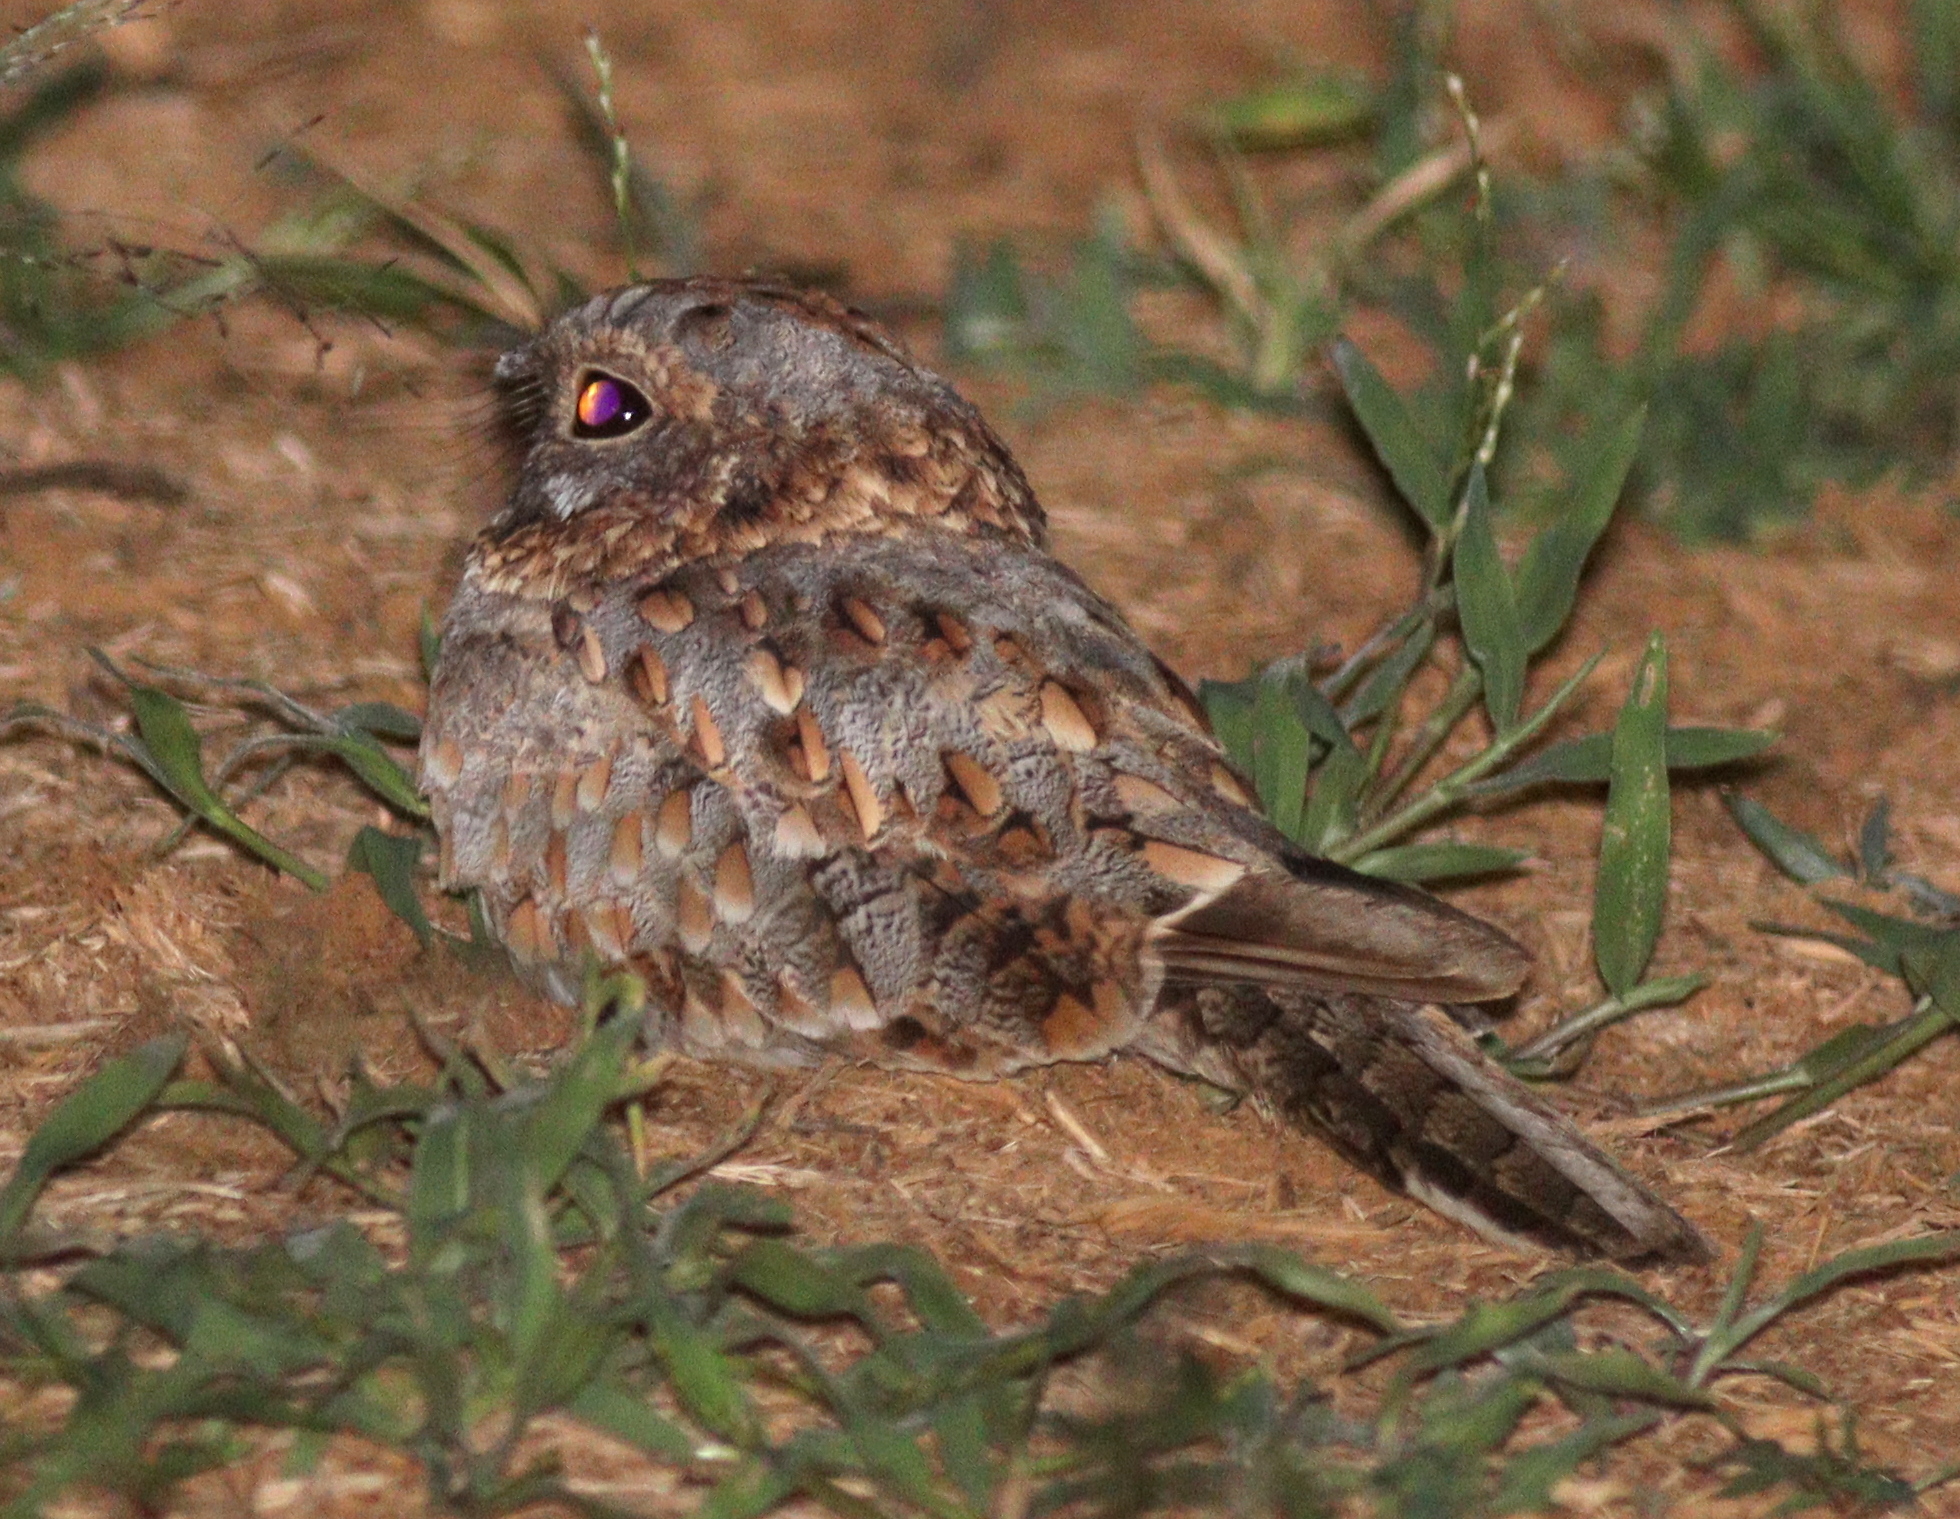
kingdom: Animalia
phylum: Chordata
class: Aves
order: Caprimulgiformes
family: Caprimulgidae
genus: Caprimulgus
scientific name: Caprimulgus nubicus
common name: Nubian nightjar
